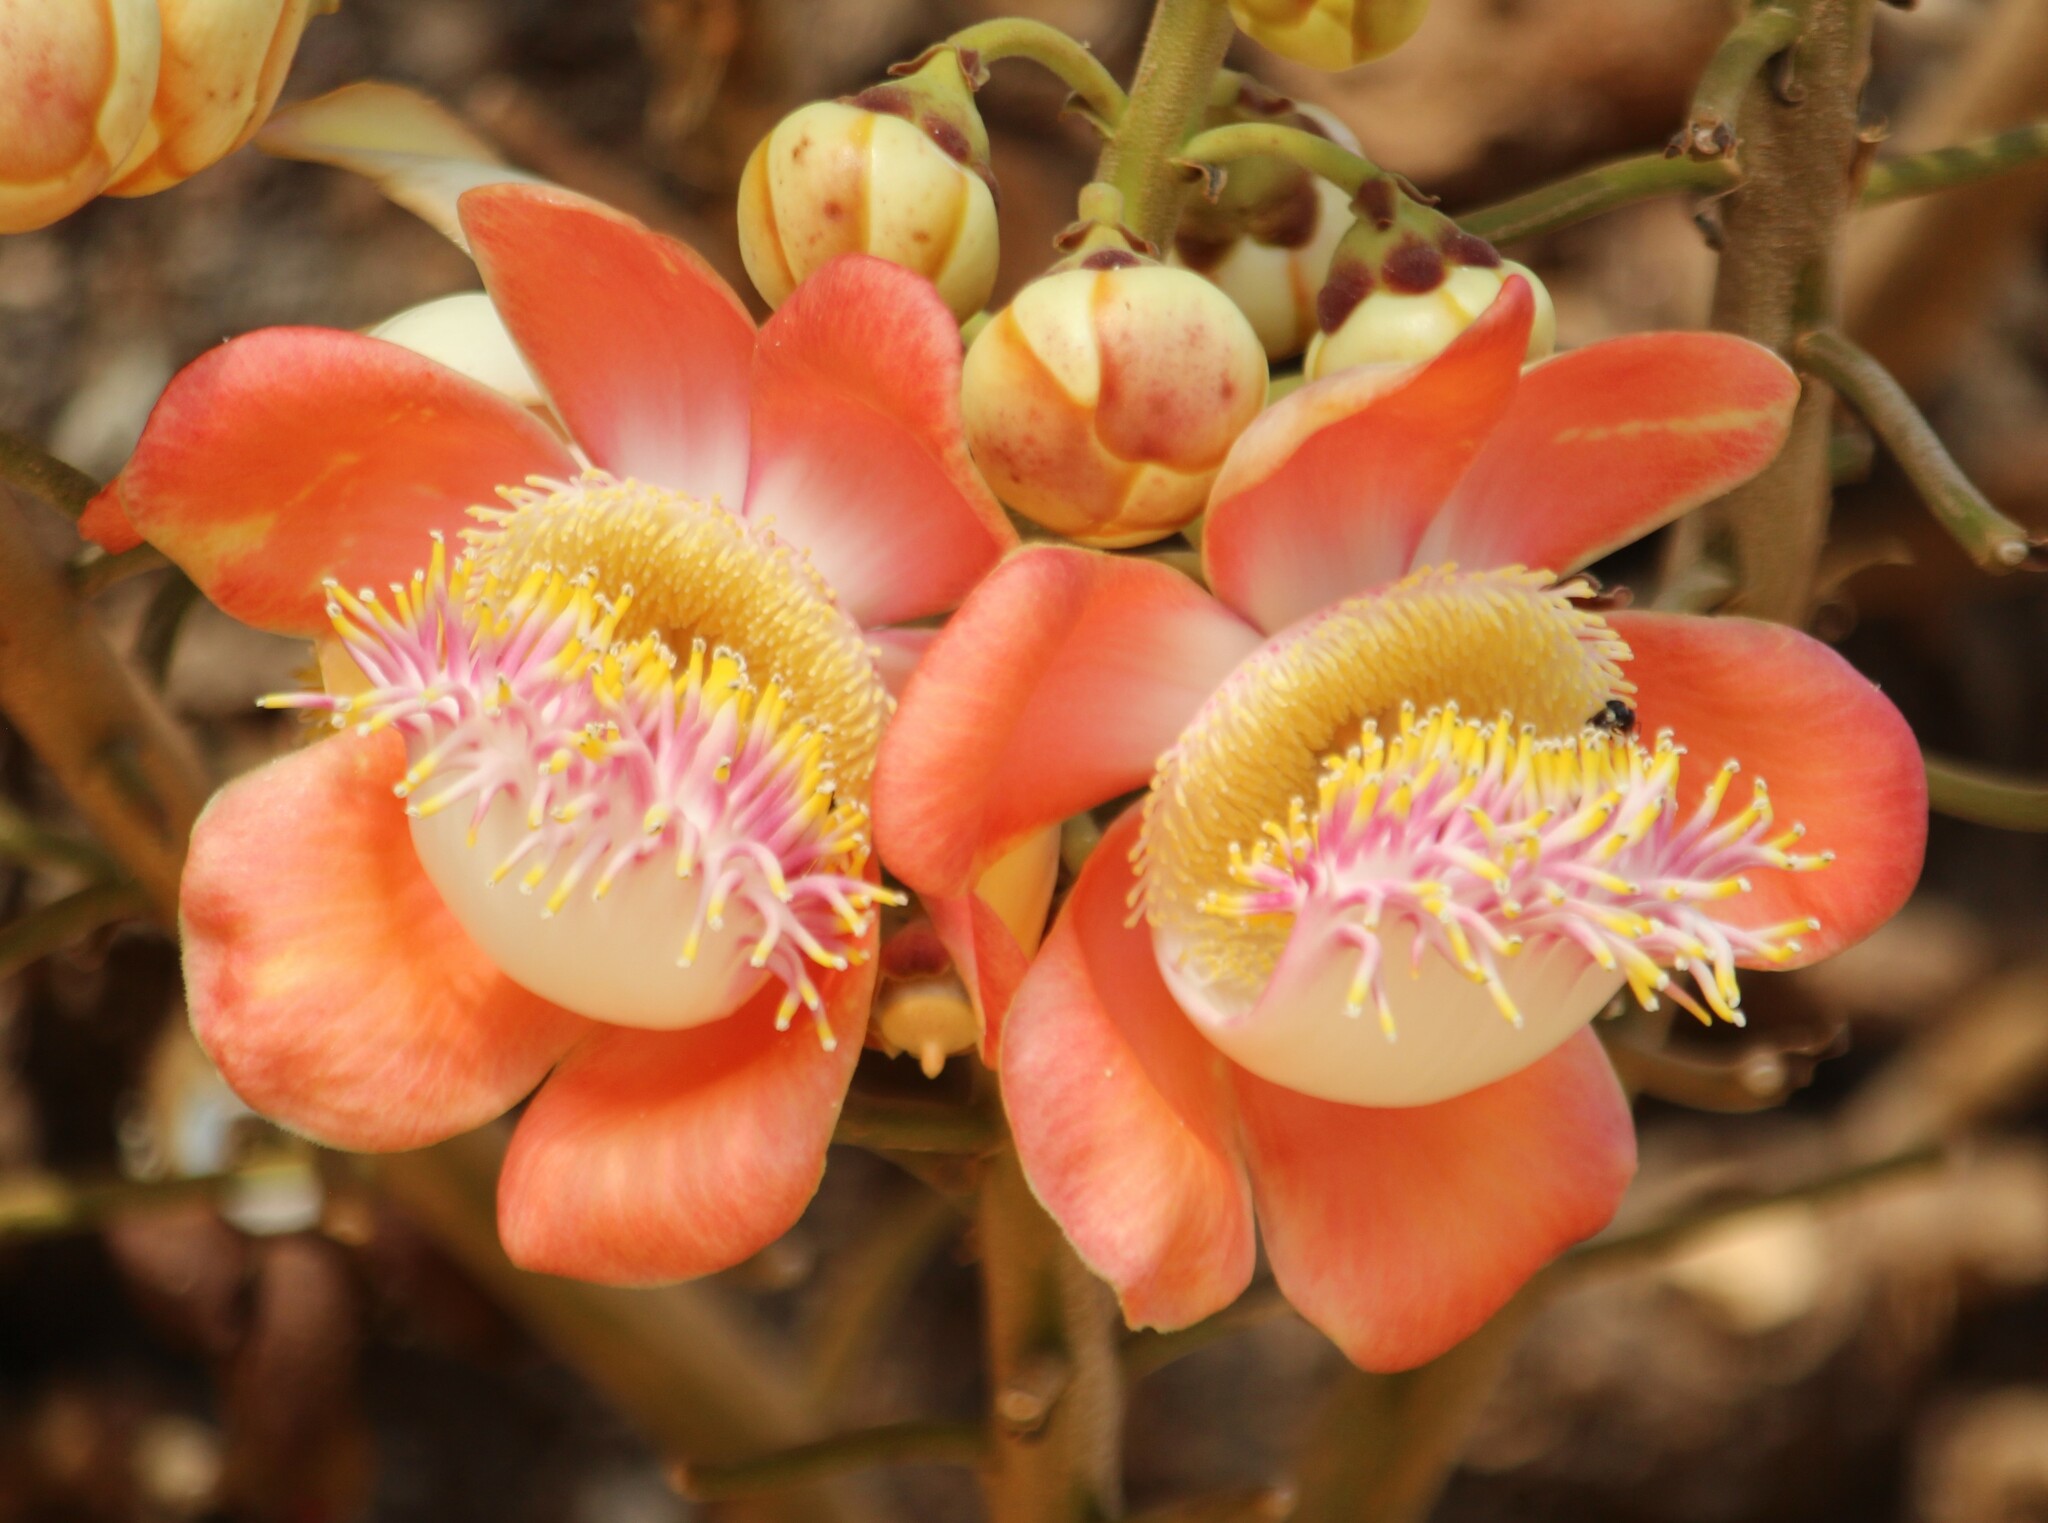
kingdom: Plantae
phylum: Tracheophyta
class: Magnoliopsida
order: Ericales
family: Lecythidaceae
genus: Couroupita
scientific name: Couroupita guianensis
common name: Cannonball tree
